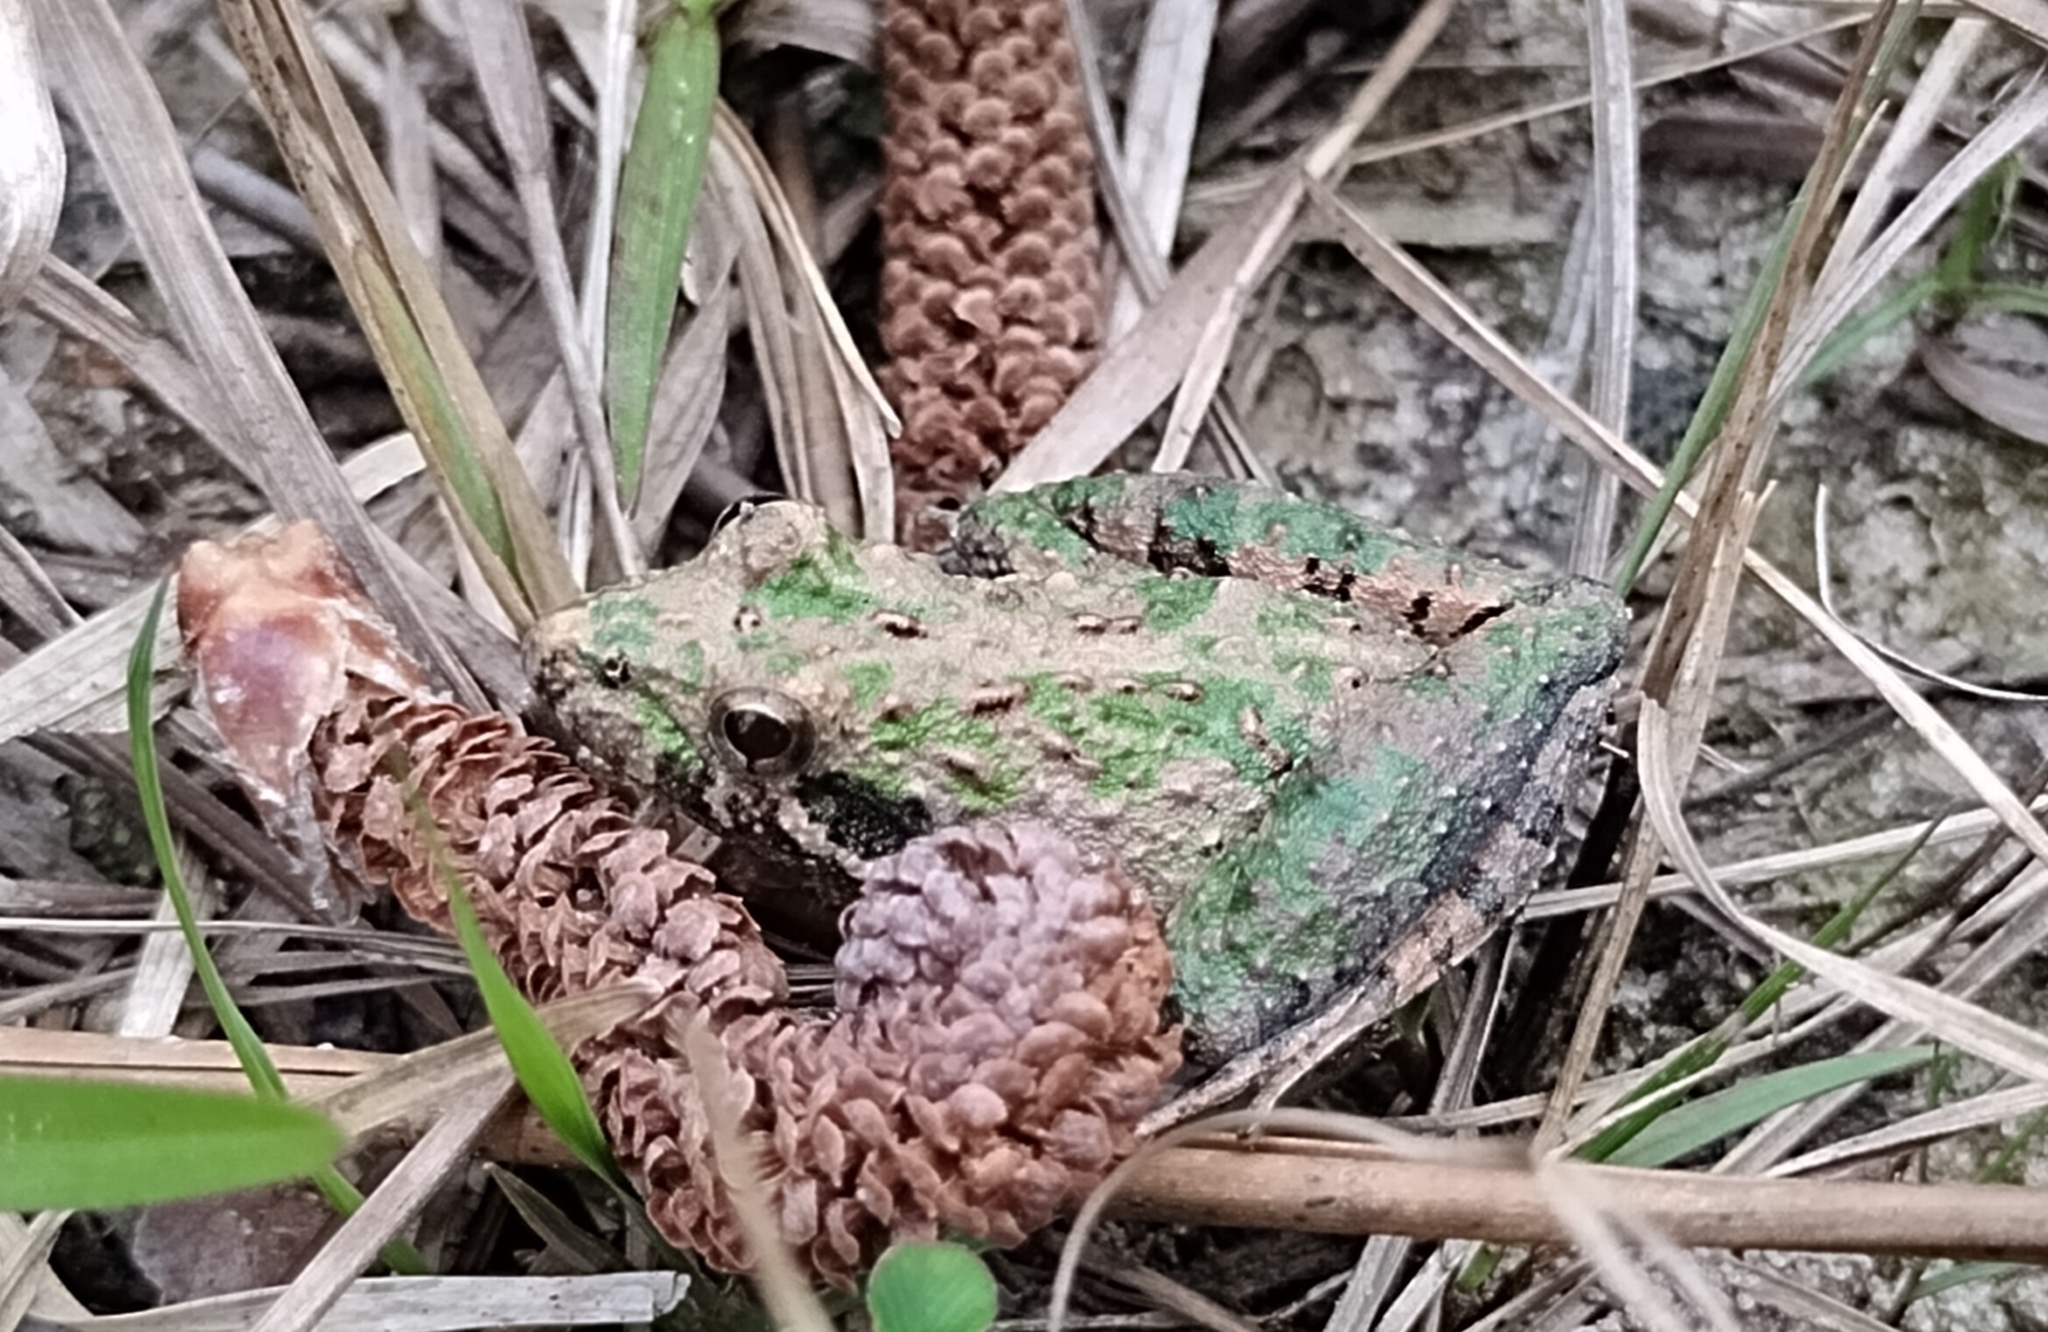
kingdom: Animalia
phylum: Chordata
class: Amphibia
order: Anura
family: Hylidae
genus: Acris
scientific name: Acris gryllus
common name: Southern cricket frog
